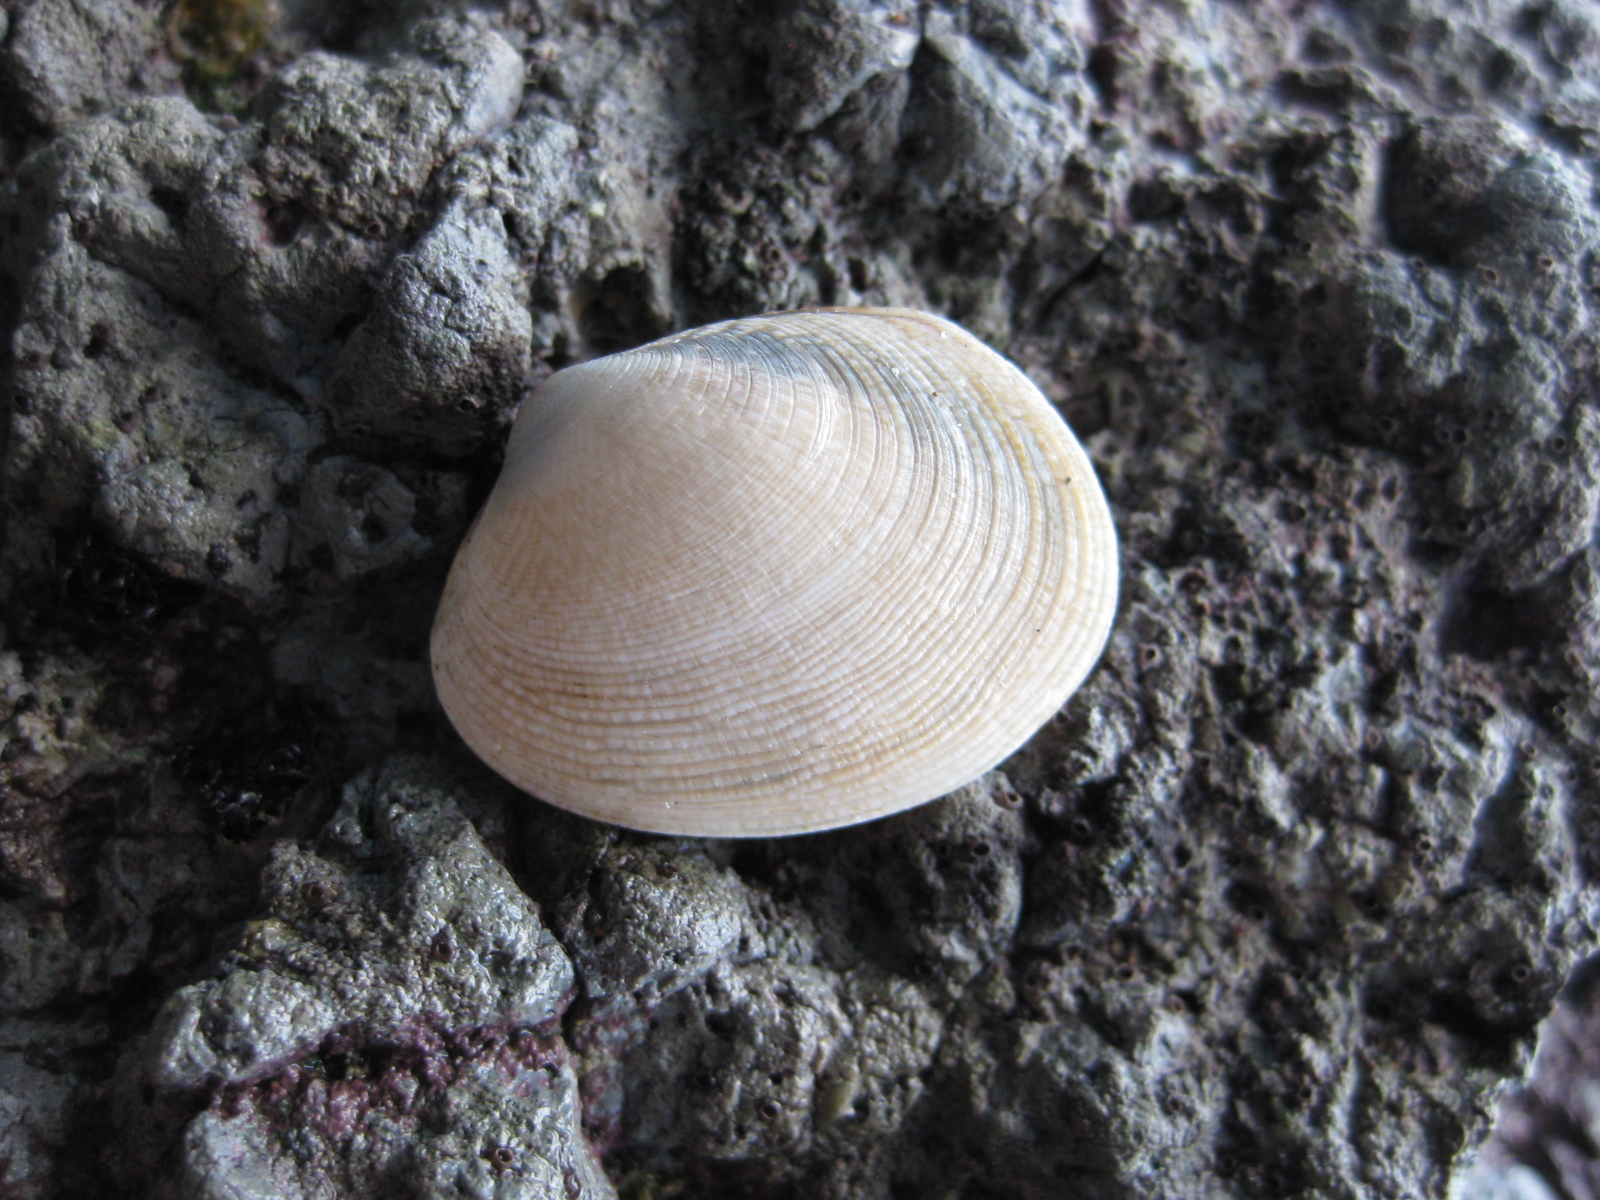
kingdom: Animalia
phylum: Mollusca
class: Bivalvia
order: Venerida
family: Veneridae
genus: Venerupis
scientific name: Venerupis largillierti
